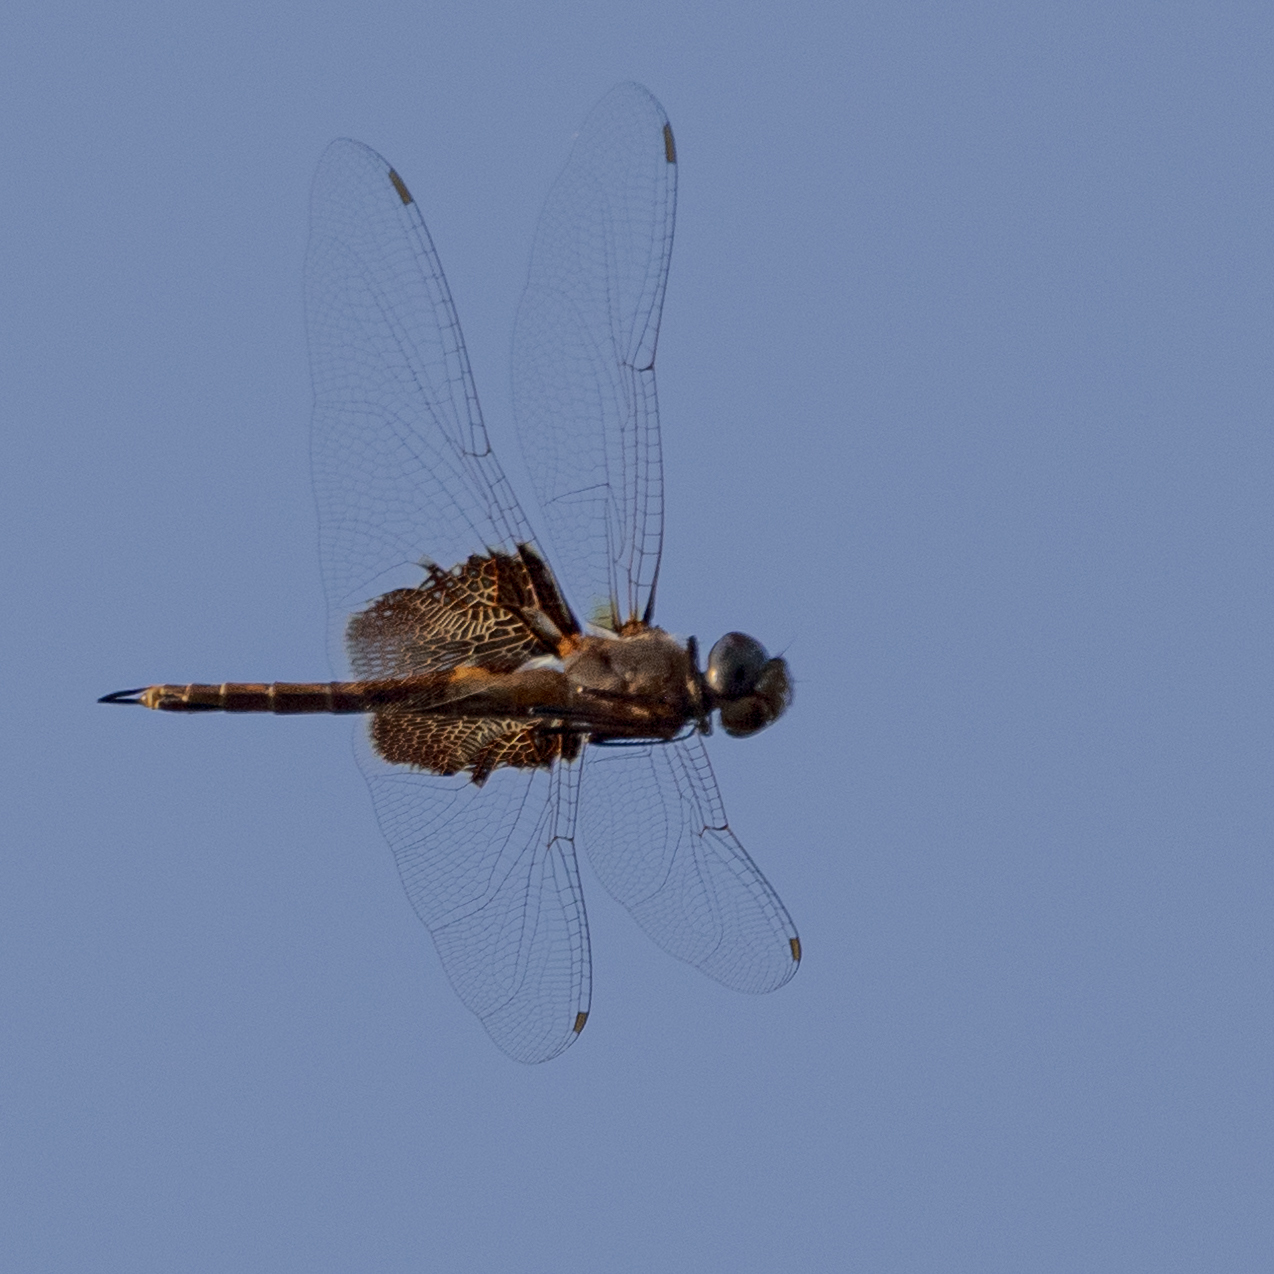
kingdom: Animalia
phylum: Arthropoda
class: Insecta
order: Odonata
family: Libellulidae
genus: Tramea
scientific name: Tramea lacerata
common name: Black saddlebags
